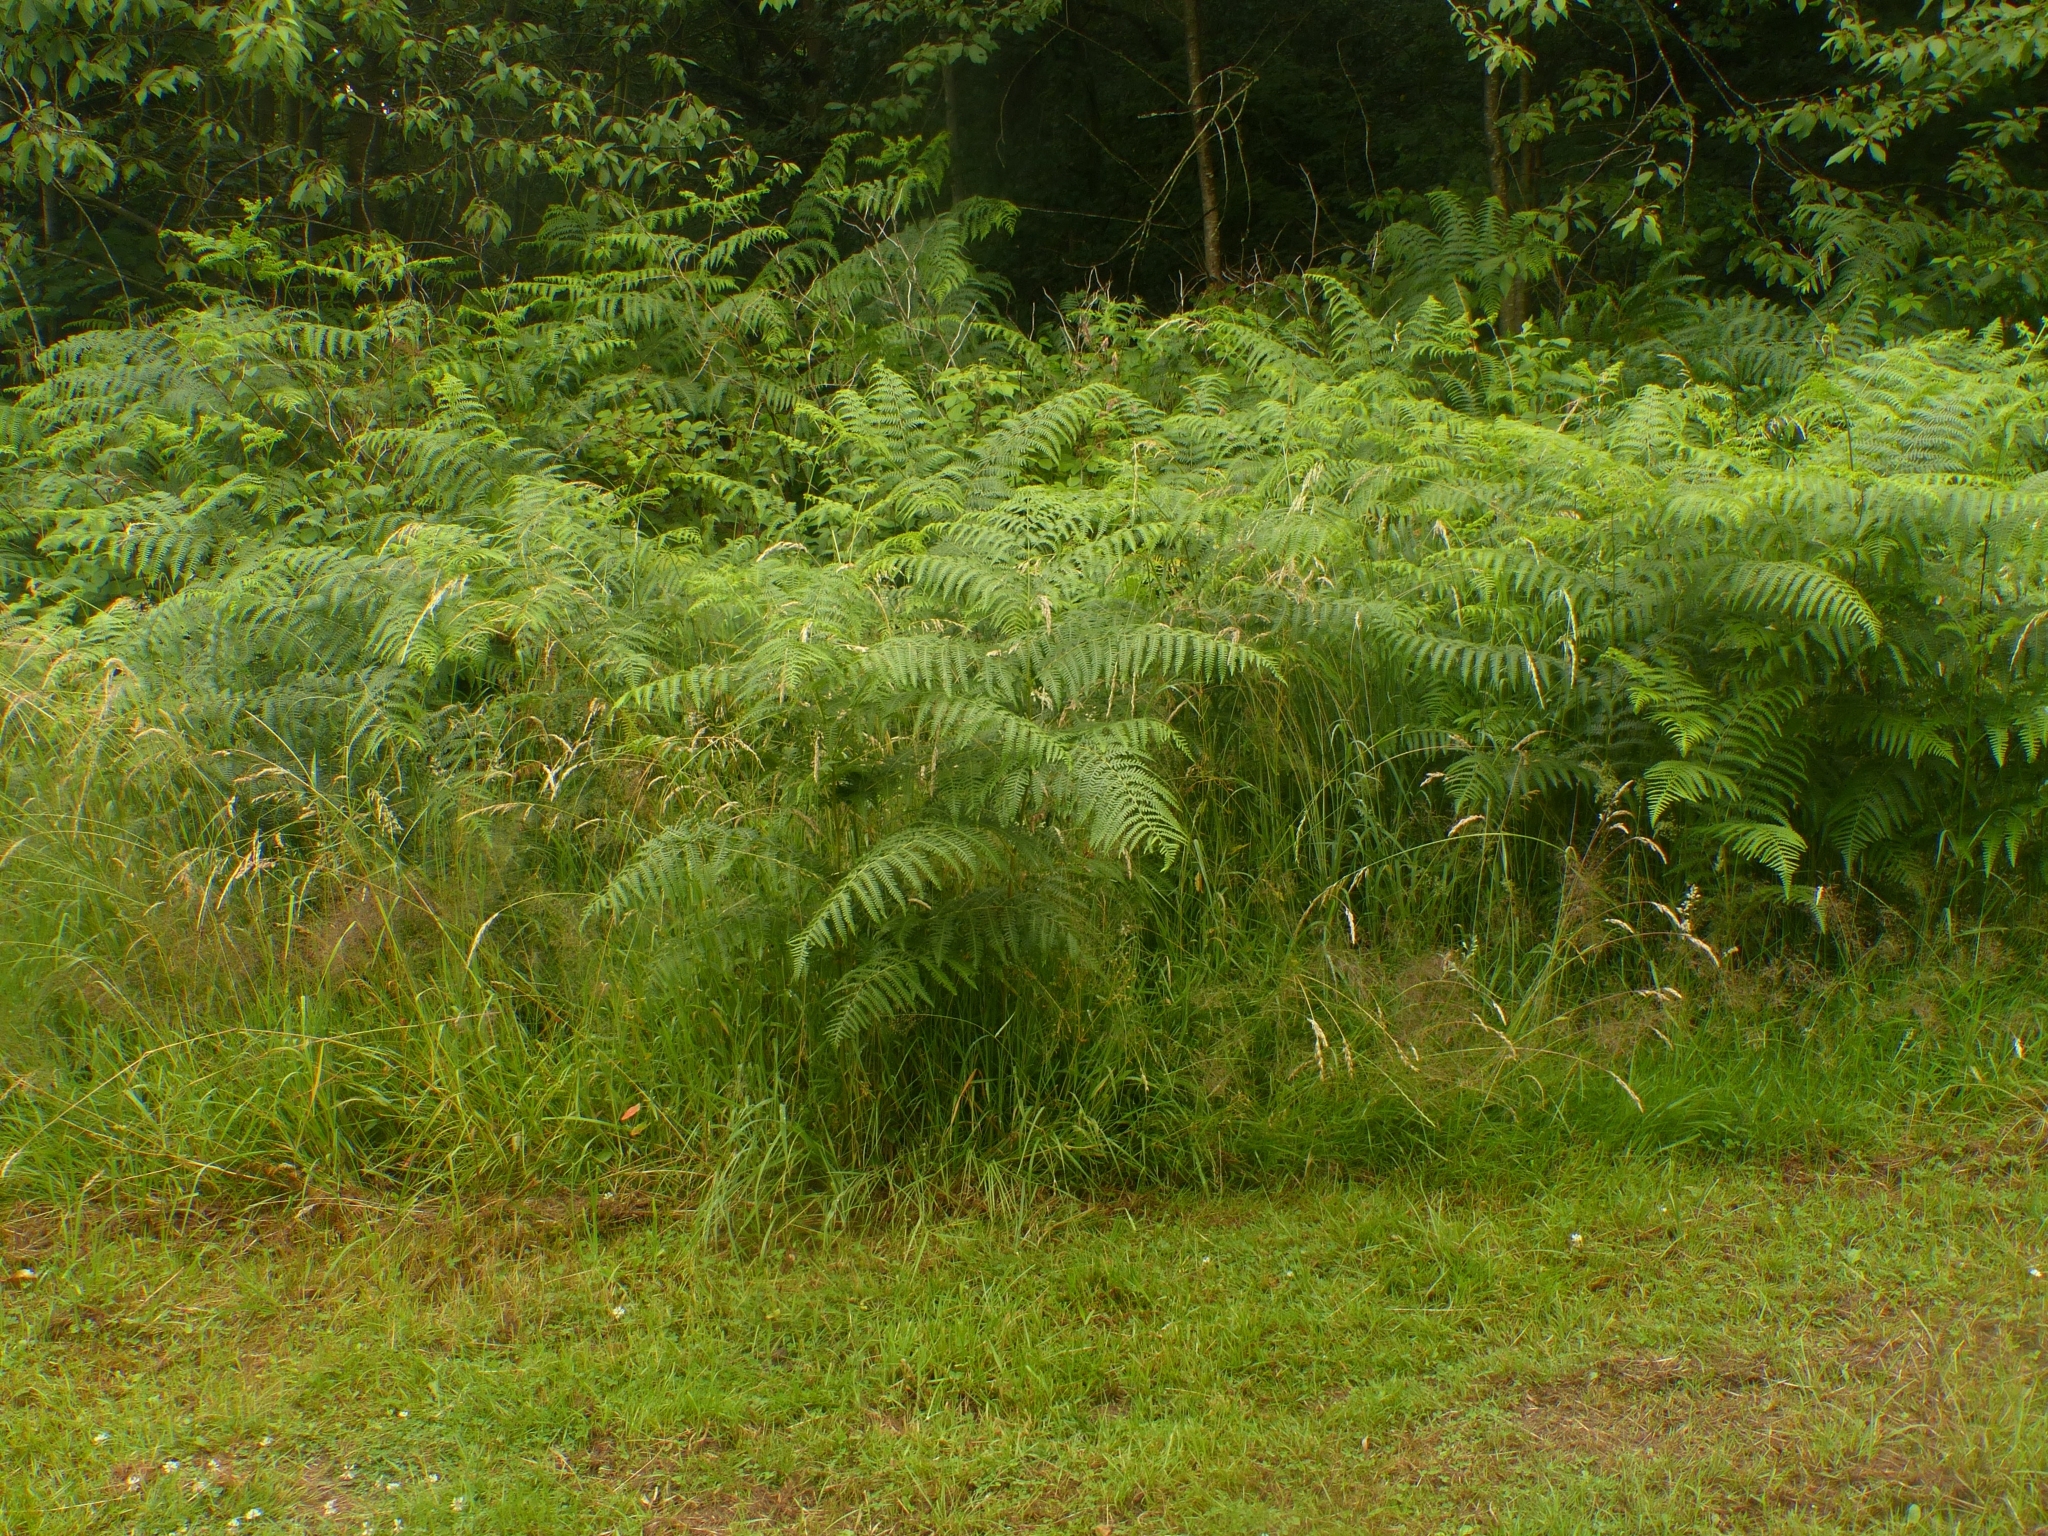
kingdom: Plantae
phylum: Tracheophyta
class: Polypodiopsida
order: Polypodiales
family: Dennstaedtiaceae
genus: Pteridium
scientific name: Pteridium aquilinum
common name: Bracken
